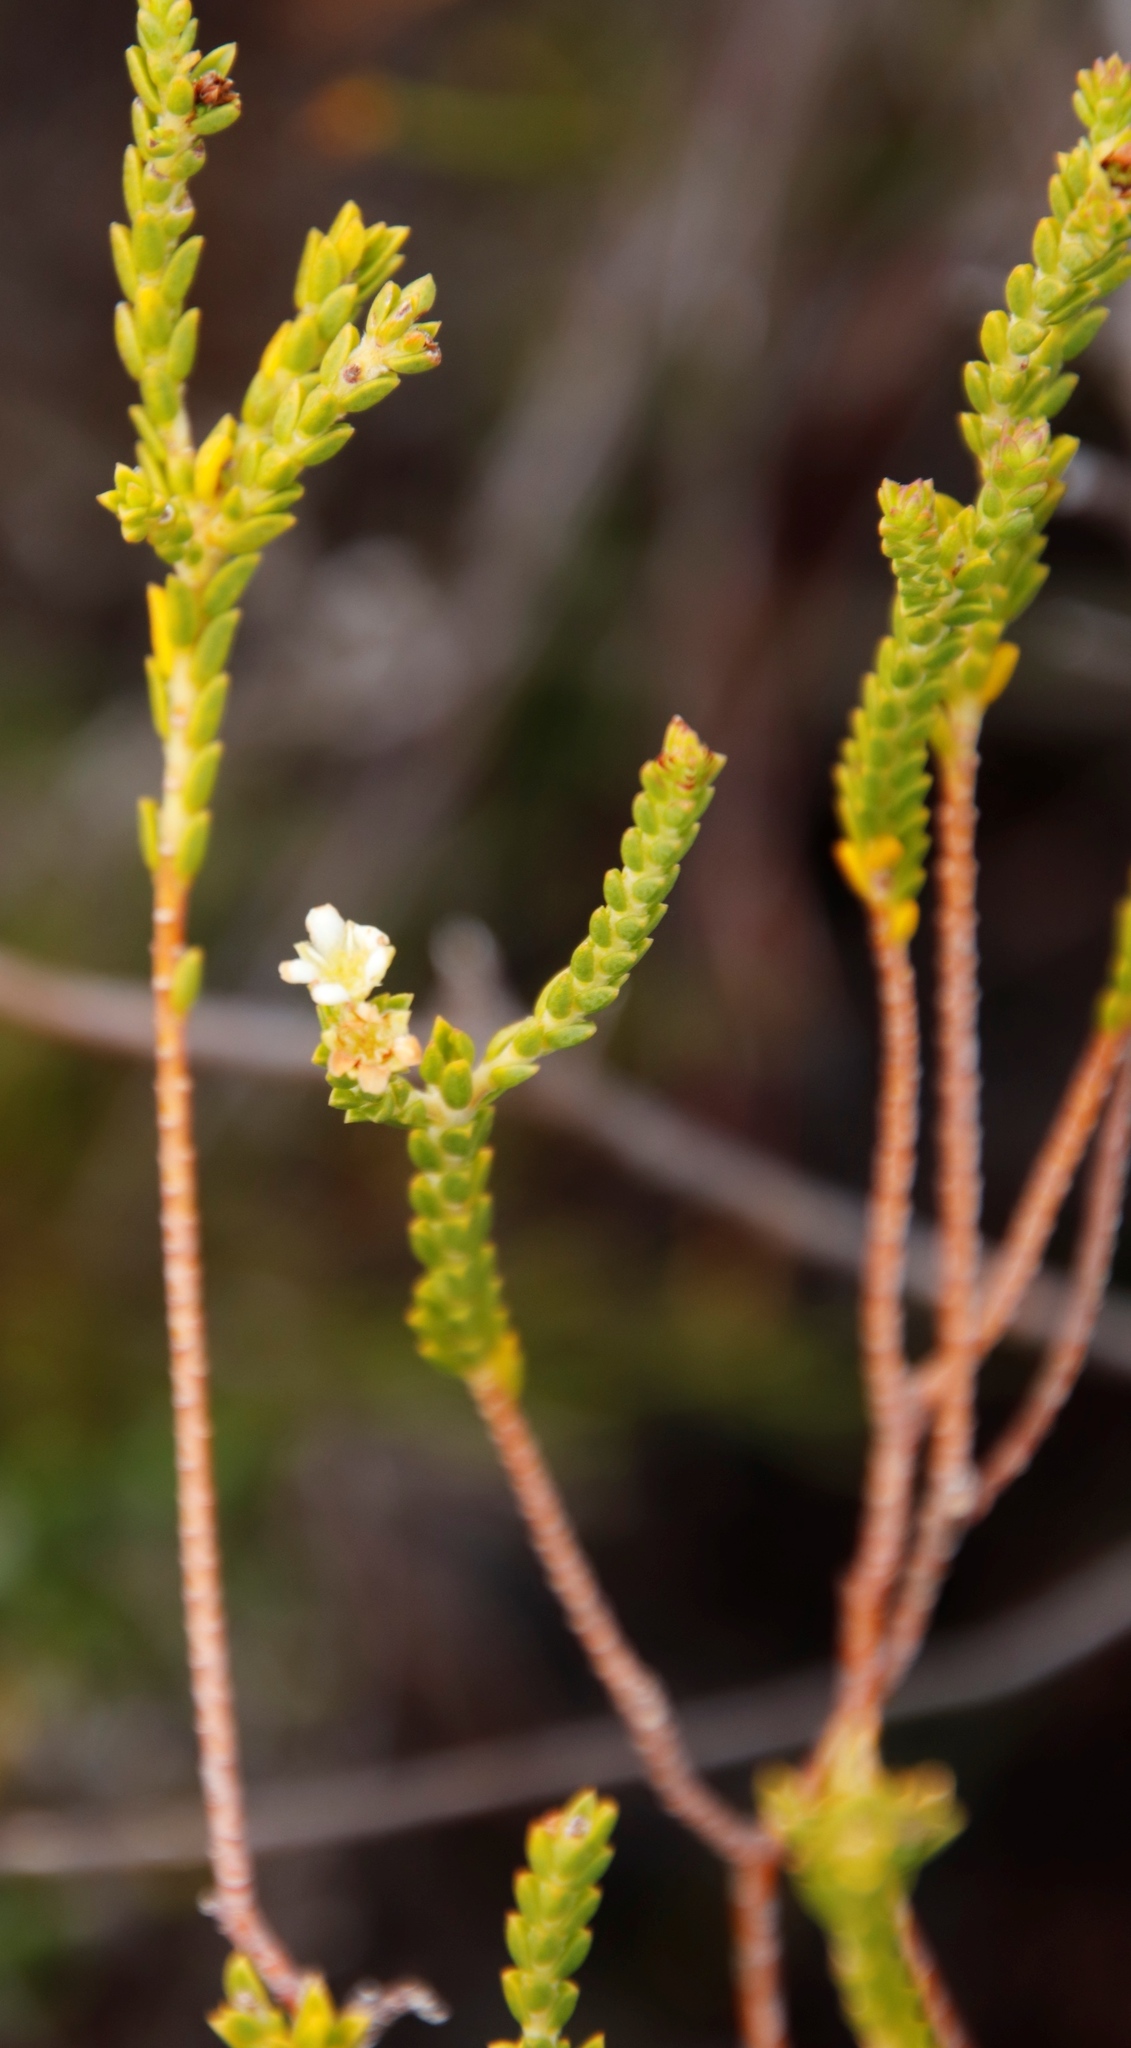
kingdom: Plantae
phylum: Tracheophyta
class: Magnoliopsida
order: Sapindales
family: Rutaceae
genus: Diosma
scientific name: Diosma oppositifolia
